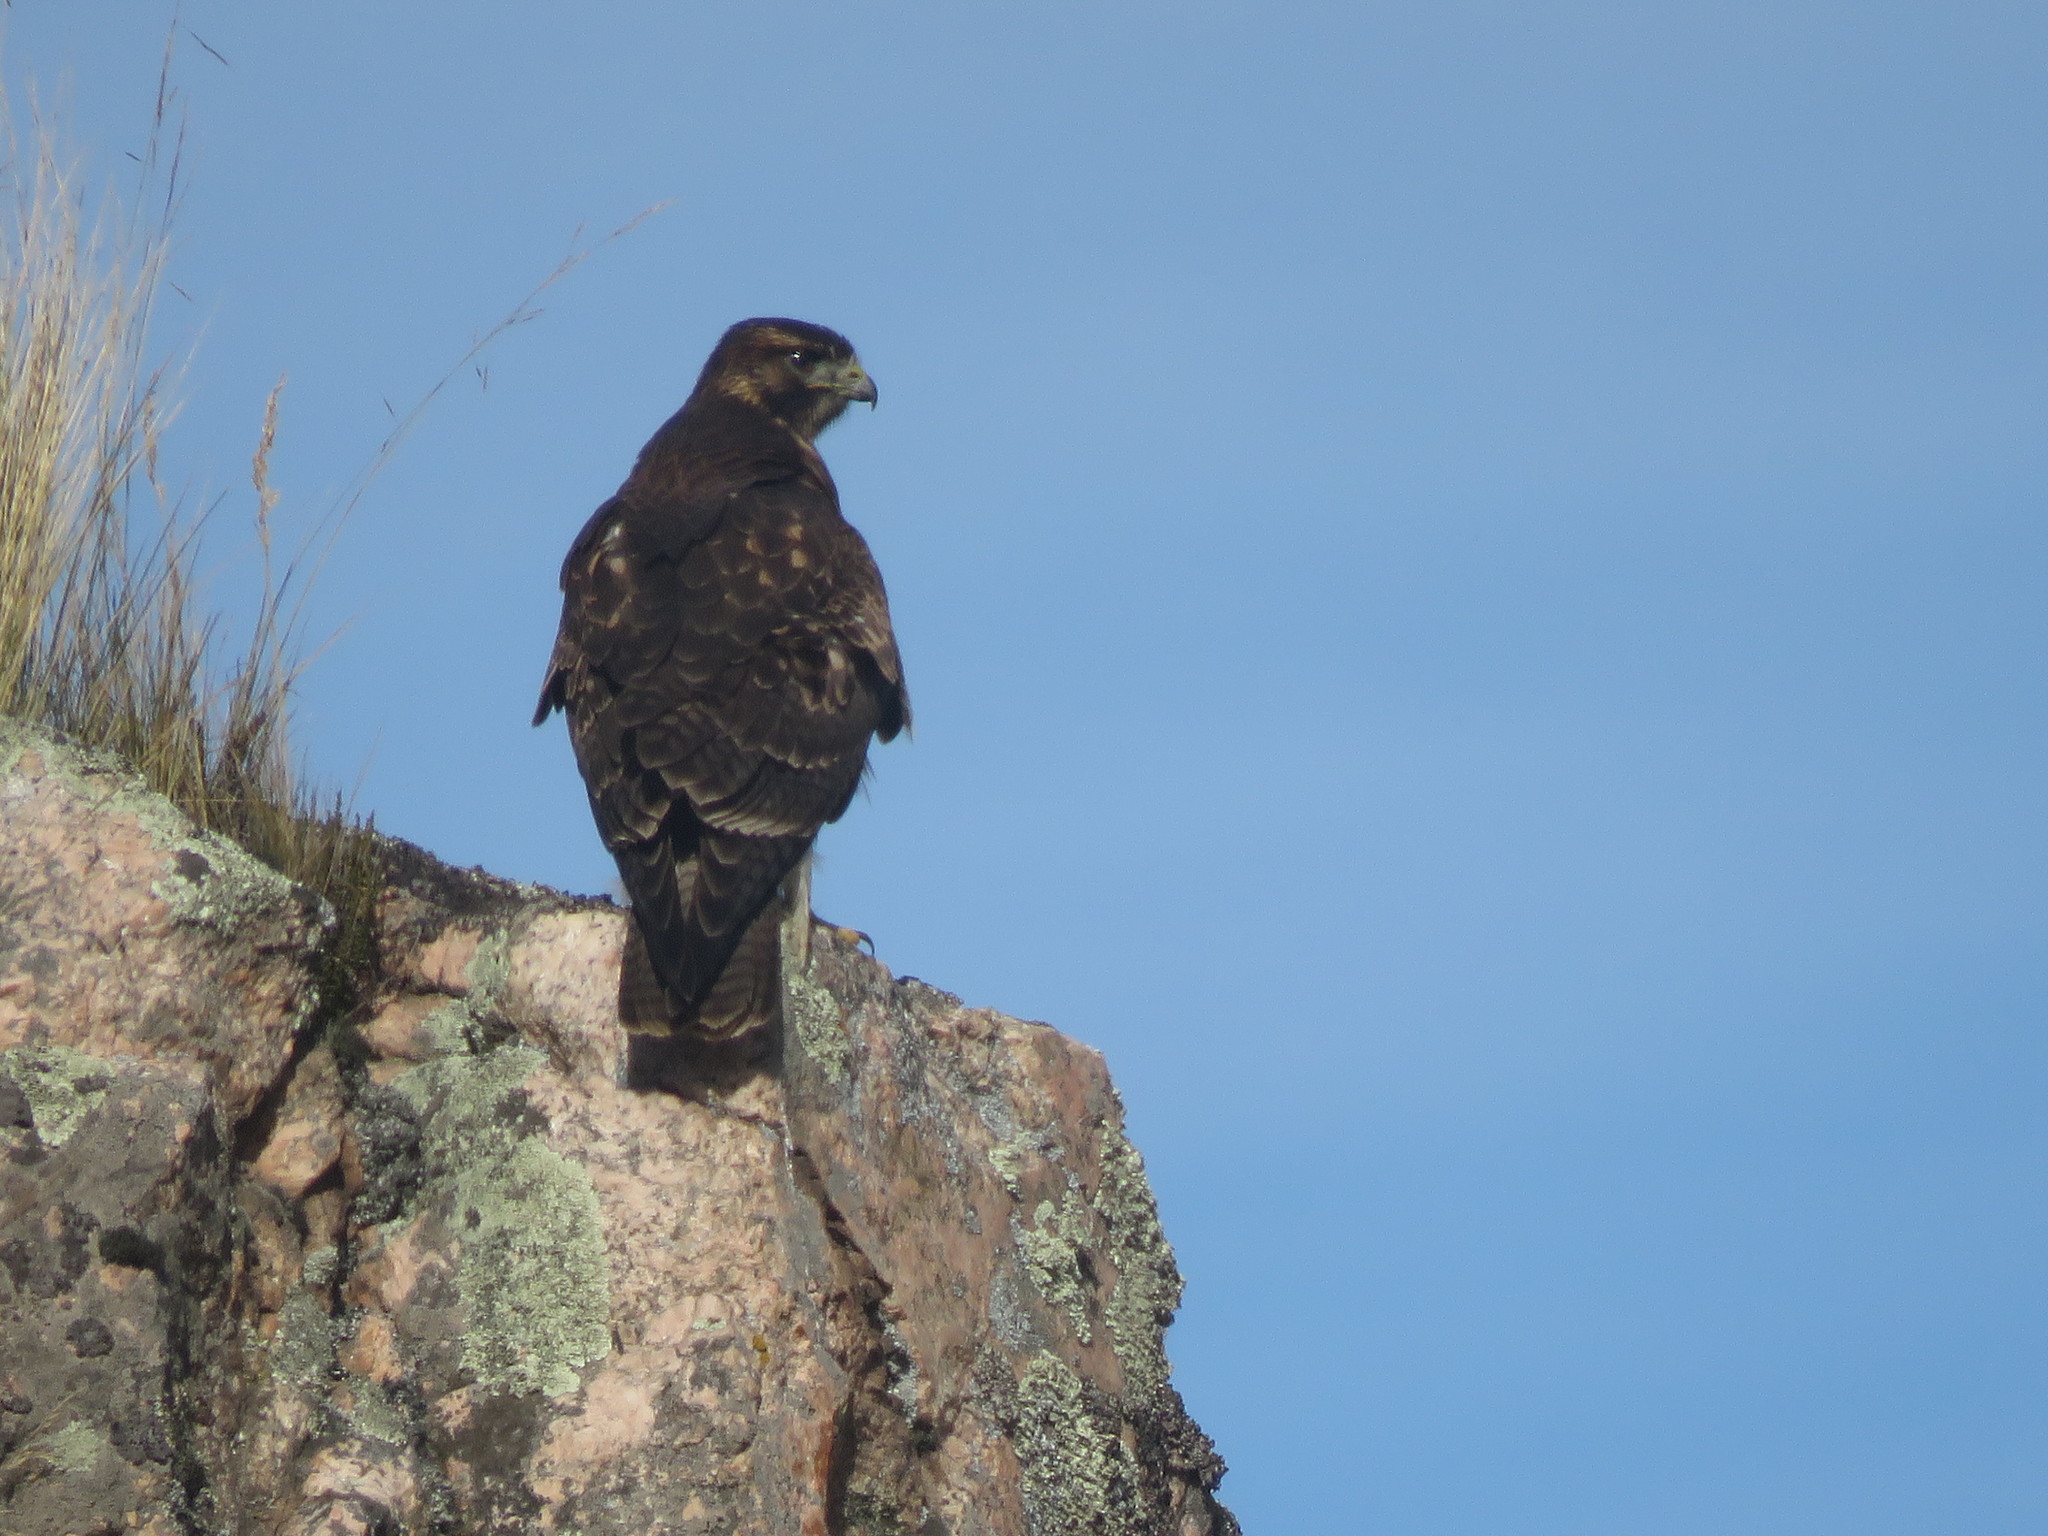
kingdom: Animalia
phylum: Chordata
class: Aves
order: Accipitriformes
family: Accipitridae
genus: Buteo
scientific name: Buteo polyosoma
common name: Variable hawk
